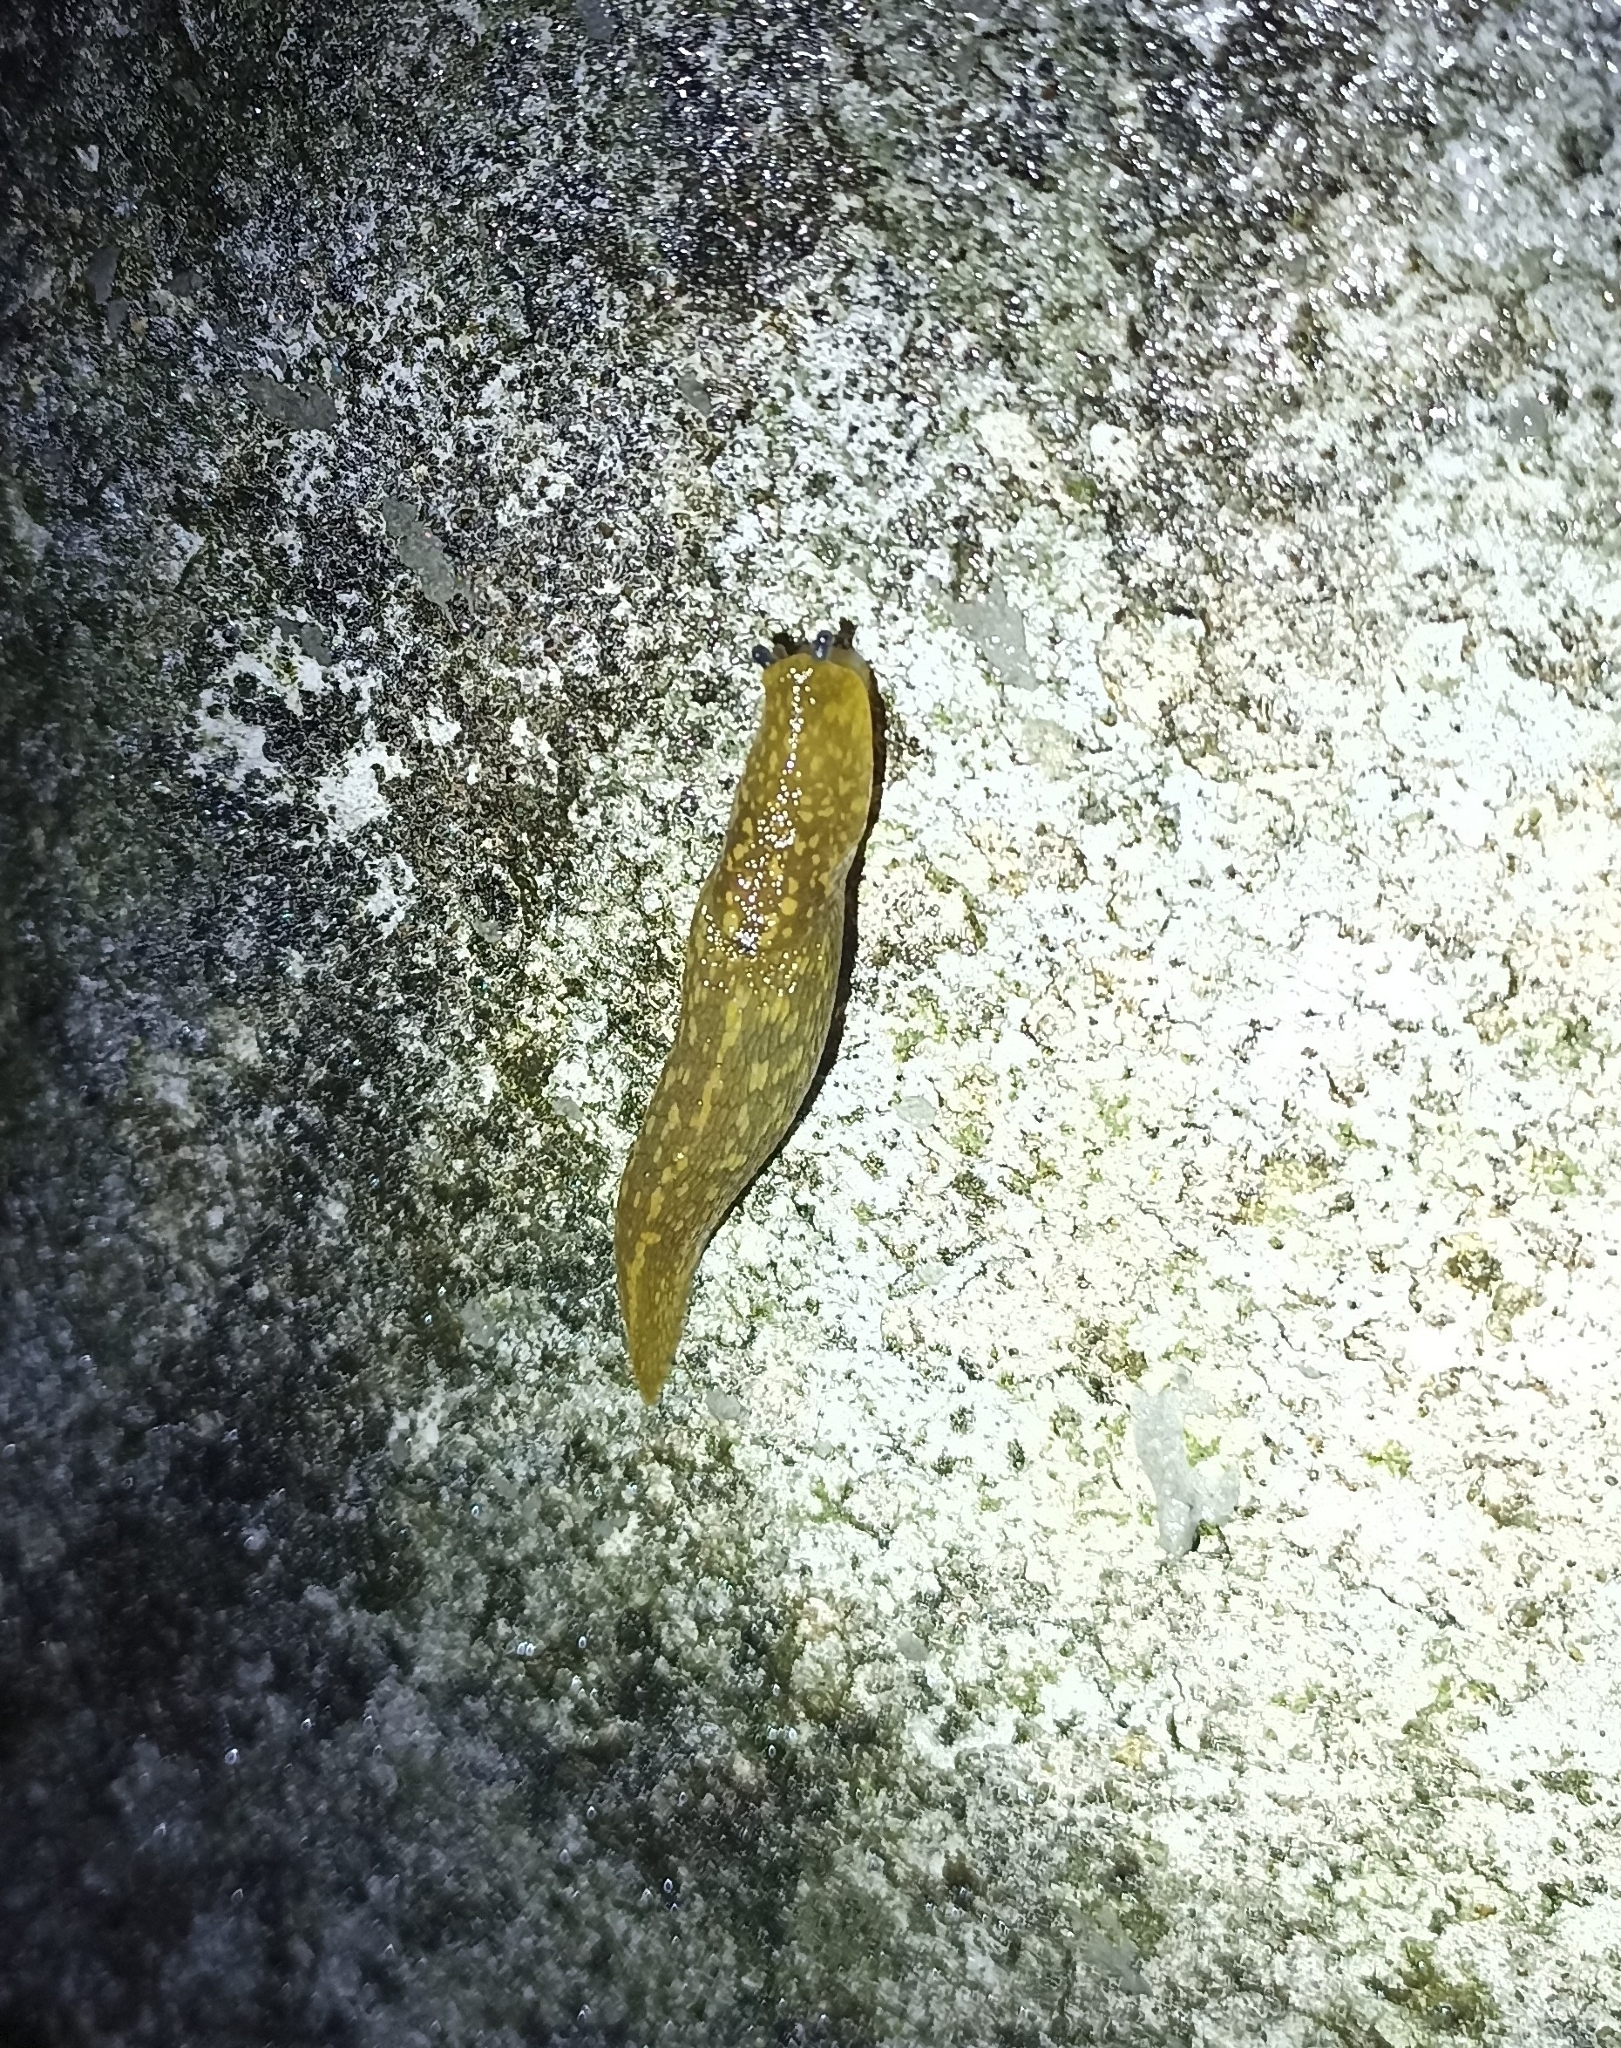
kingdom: Animalia
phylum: Mollusca
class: Gastropoda
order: Stylommatophora
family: Limacidae
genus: Limacus
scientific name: Limacus flavus
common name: Yellow gardenslug
